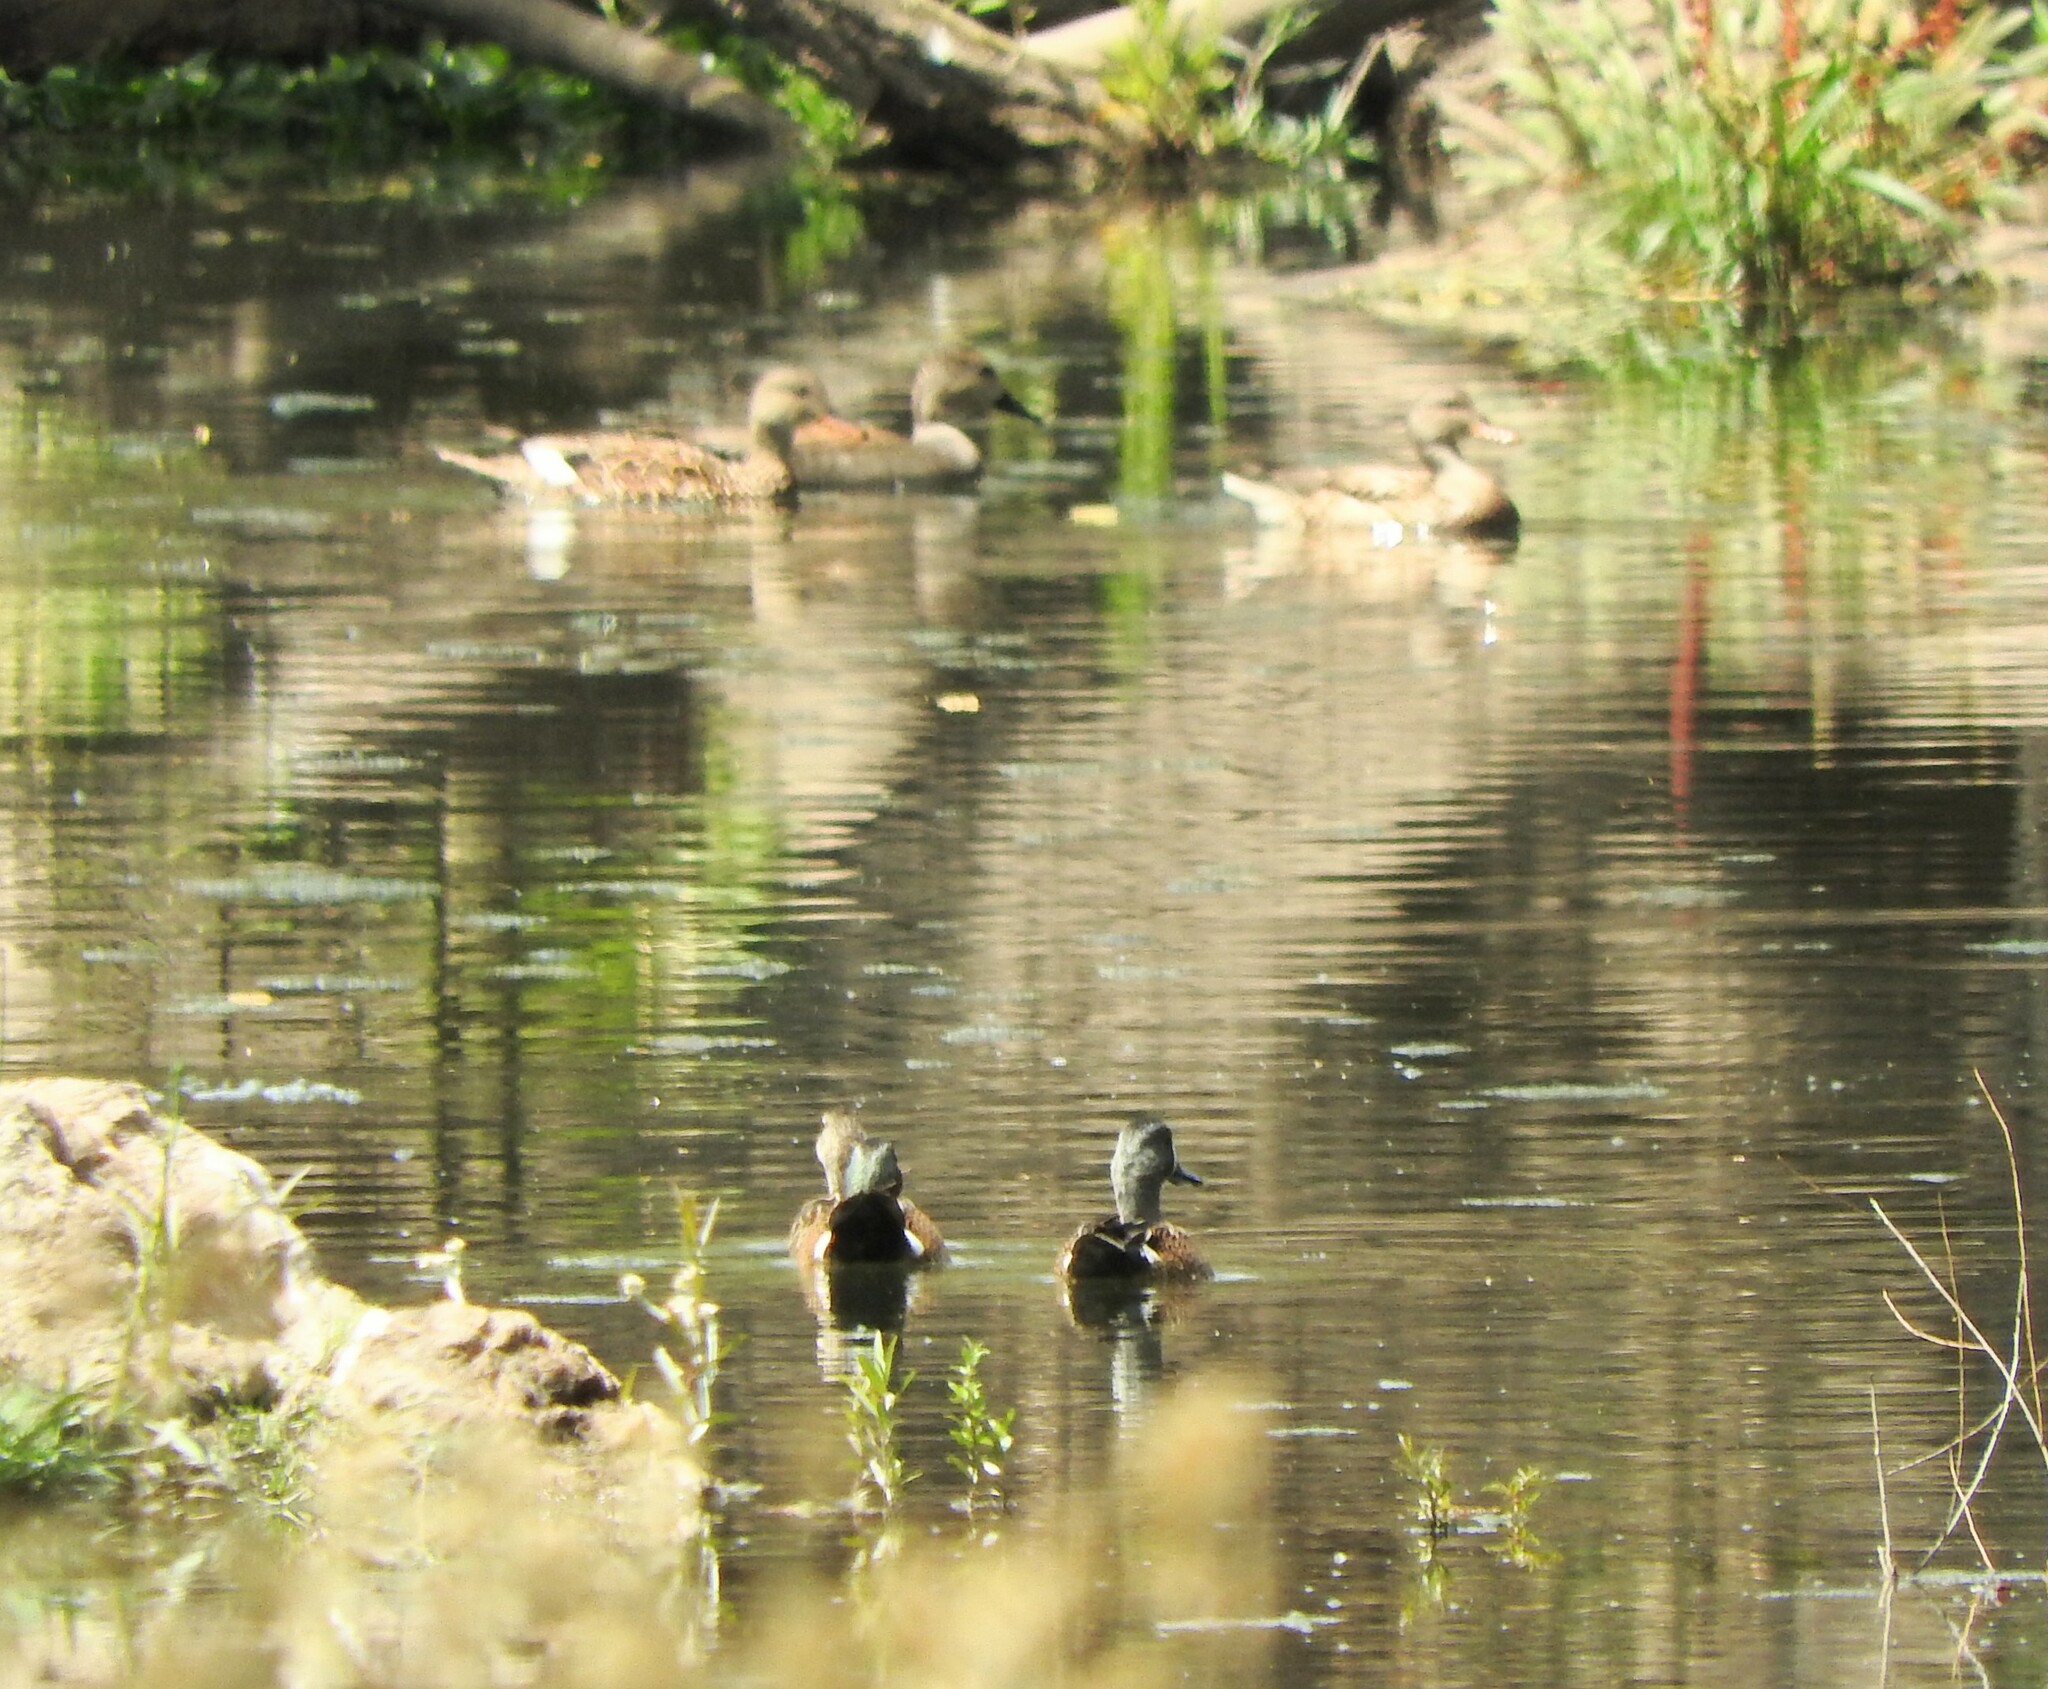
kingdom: Animalia
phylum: Chordata
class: Aves
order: Anseriformes
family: Anatidae
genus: Spatula
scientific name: Spatula discors
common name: Blue-winged teal
